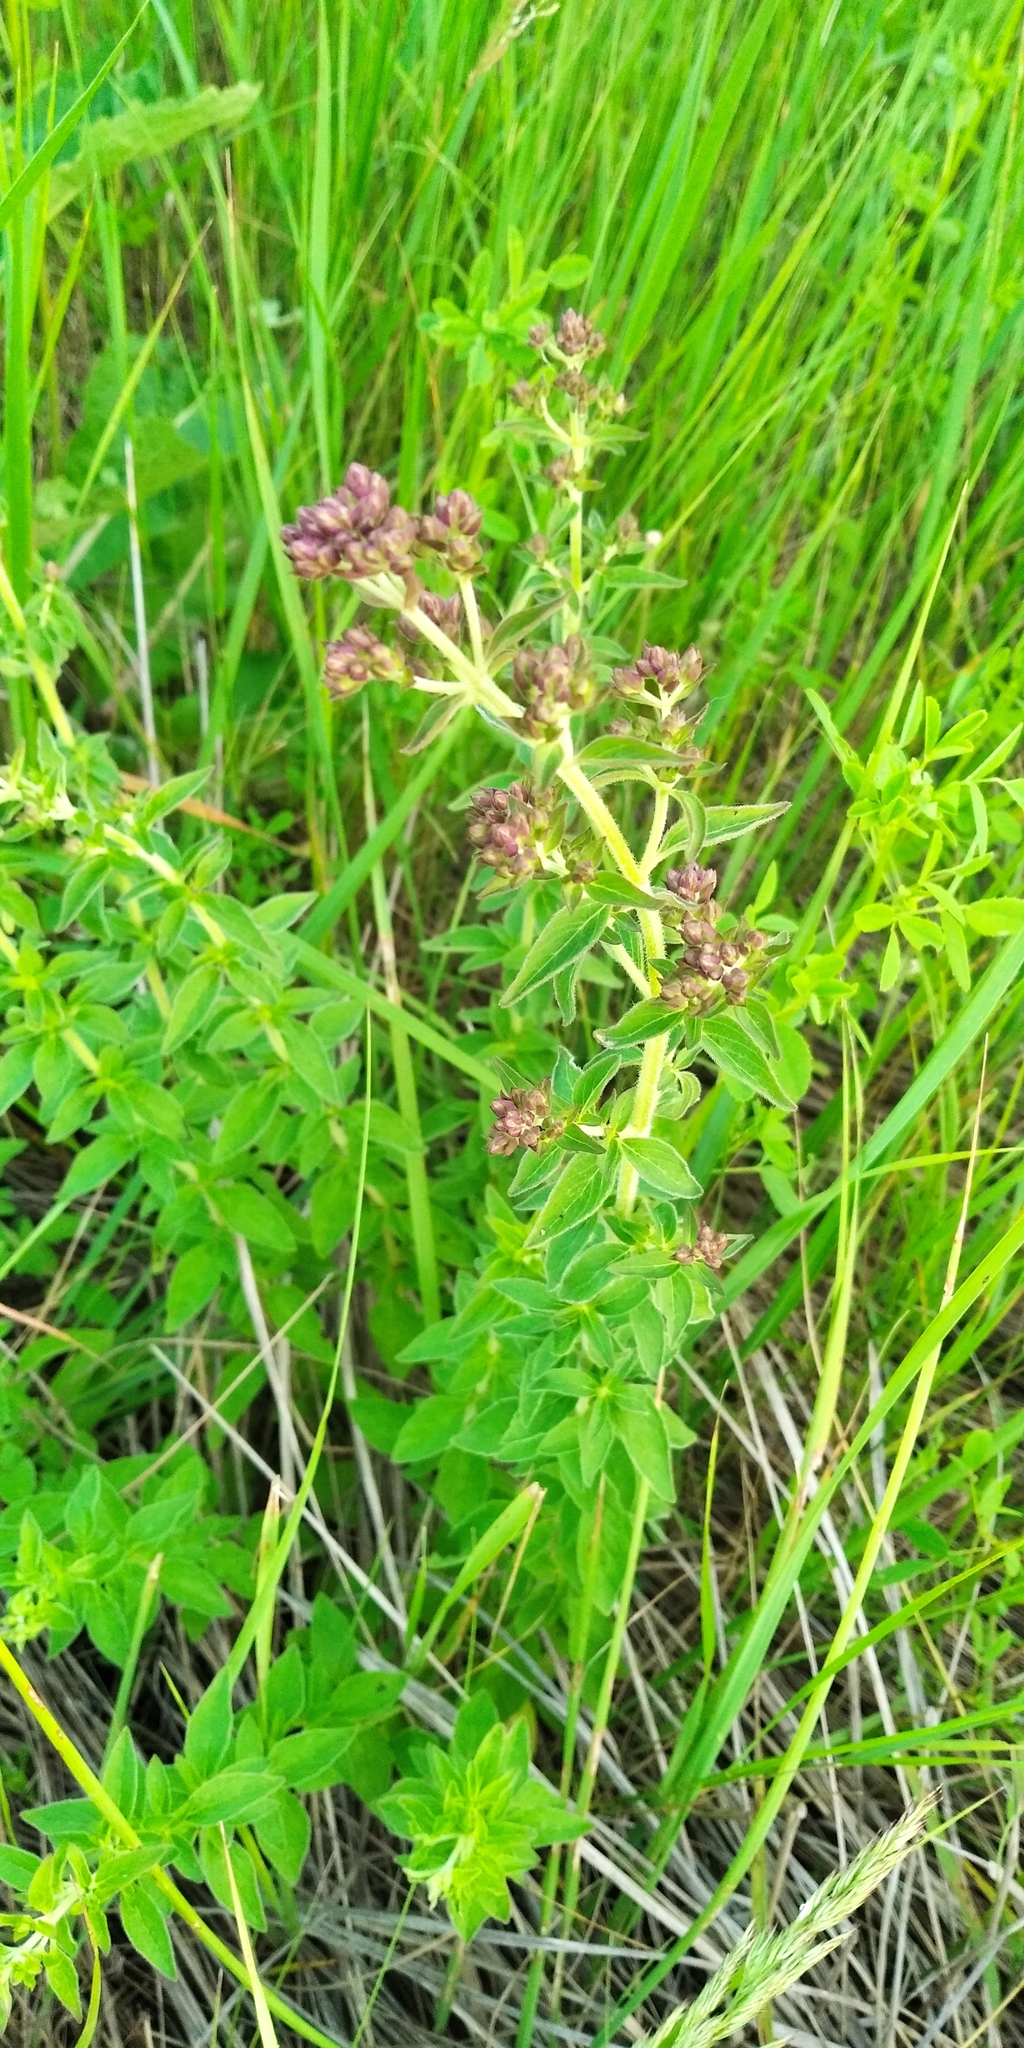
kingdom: Plantae
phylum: Tracheophyta
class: Magnoliopsida
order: Lamiales
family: Lamiaceae
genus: Origanum
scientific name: Origanum vulgare
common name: Wild marjoram
